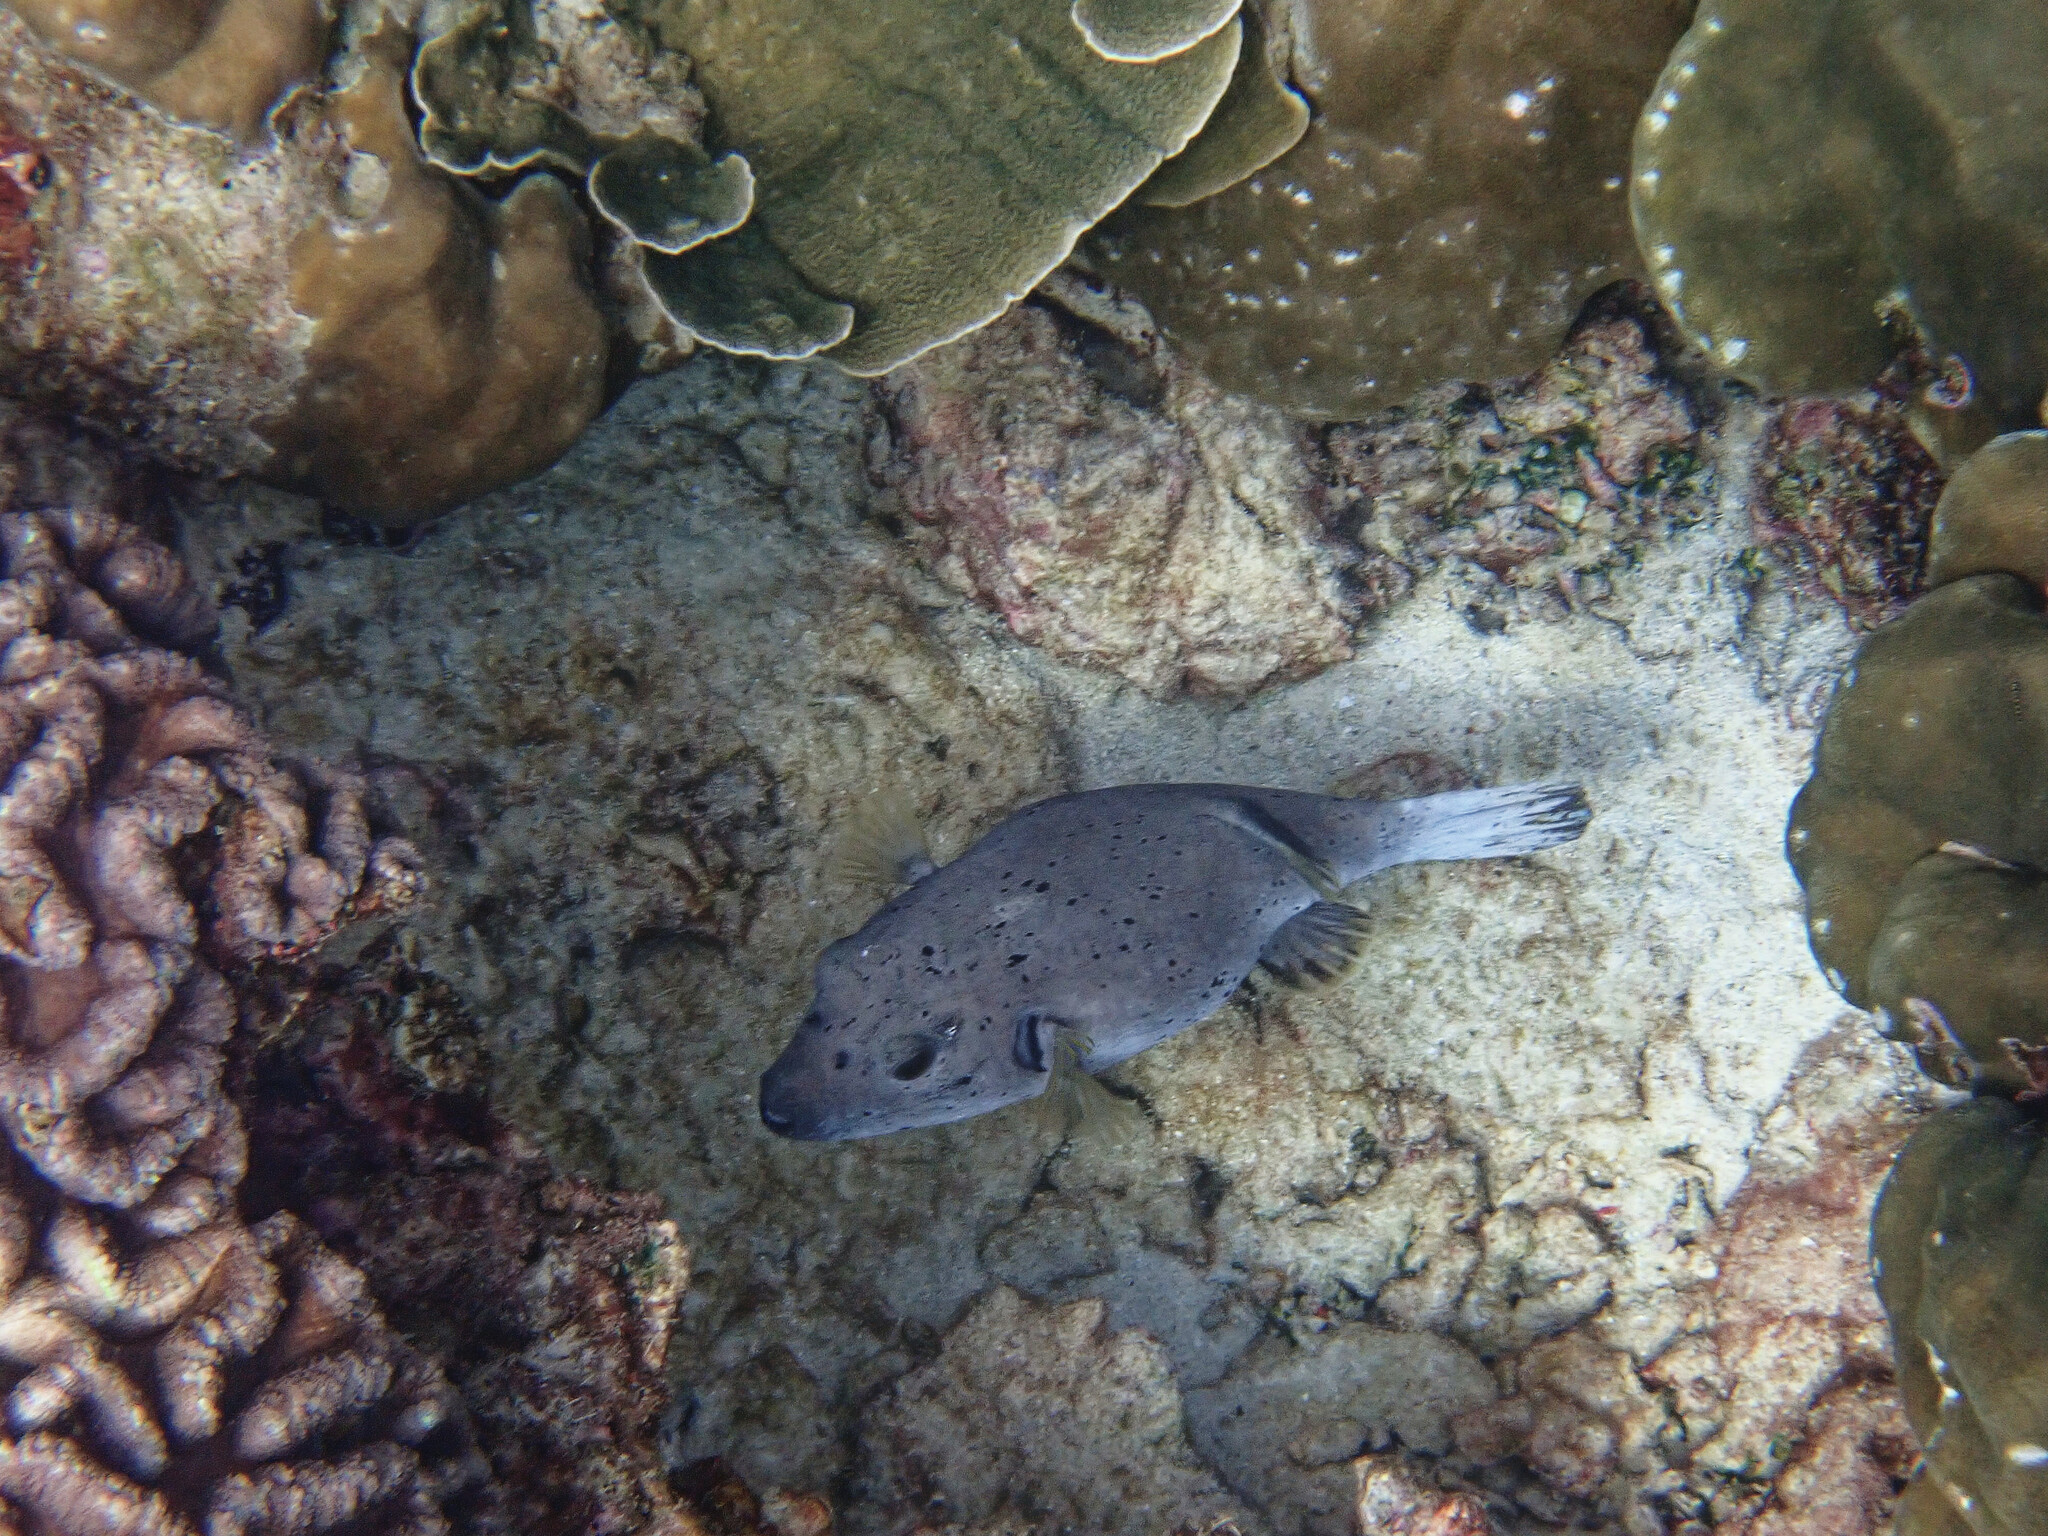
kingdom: Animalia
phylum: Chordata
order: Tetraodontiformes
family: Tetraodontidae
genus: Arothron
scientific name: Arothron nigropunctatus
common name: Black spotted blow fish
